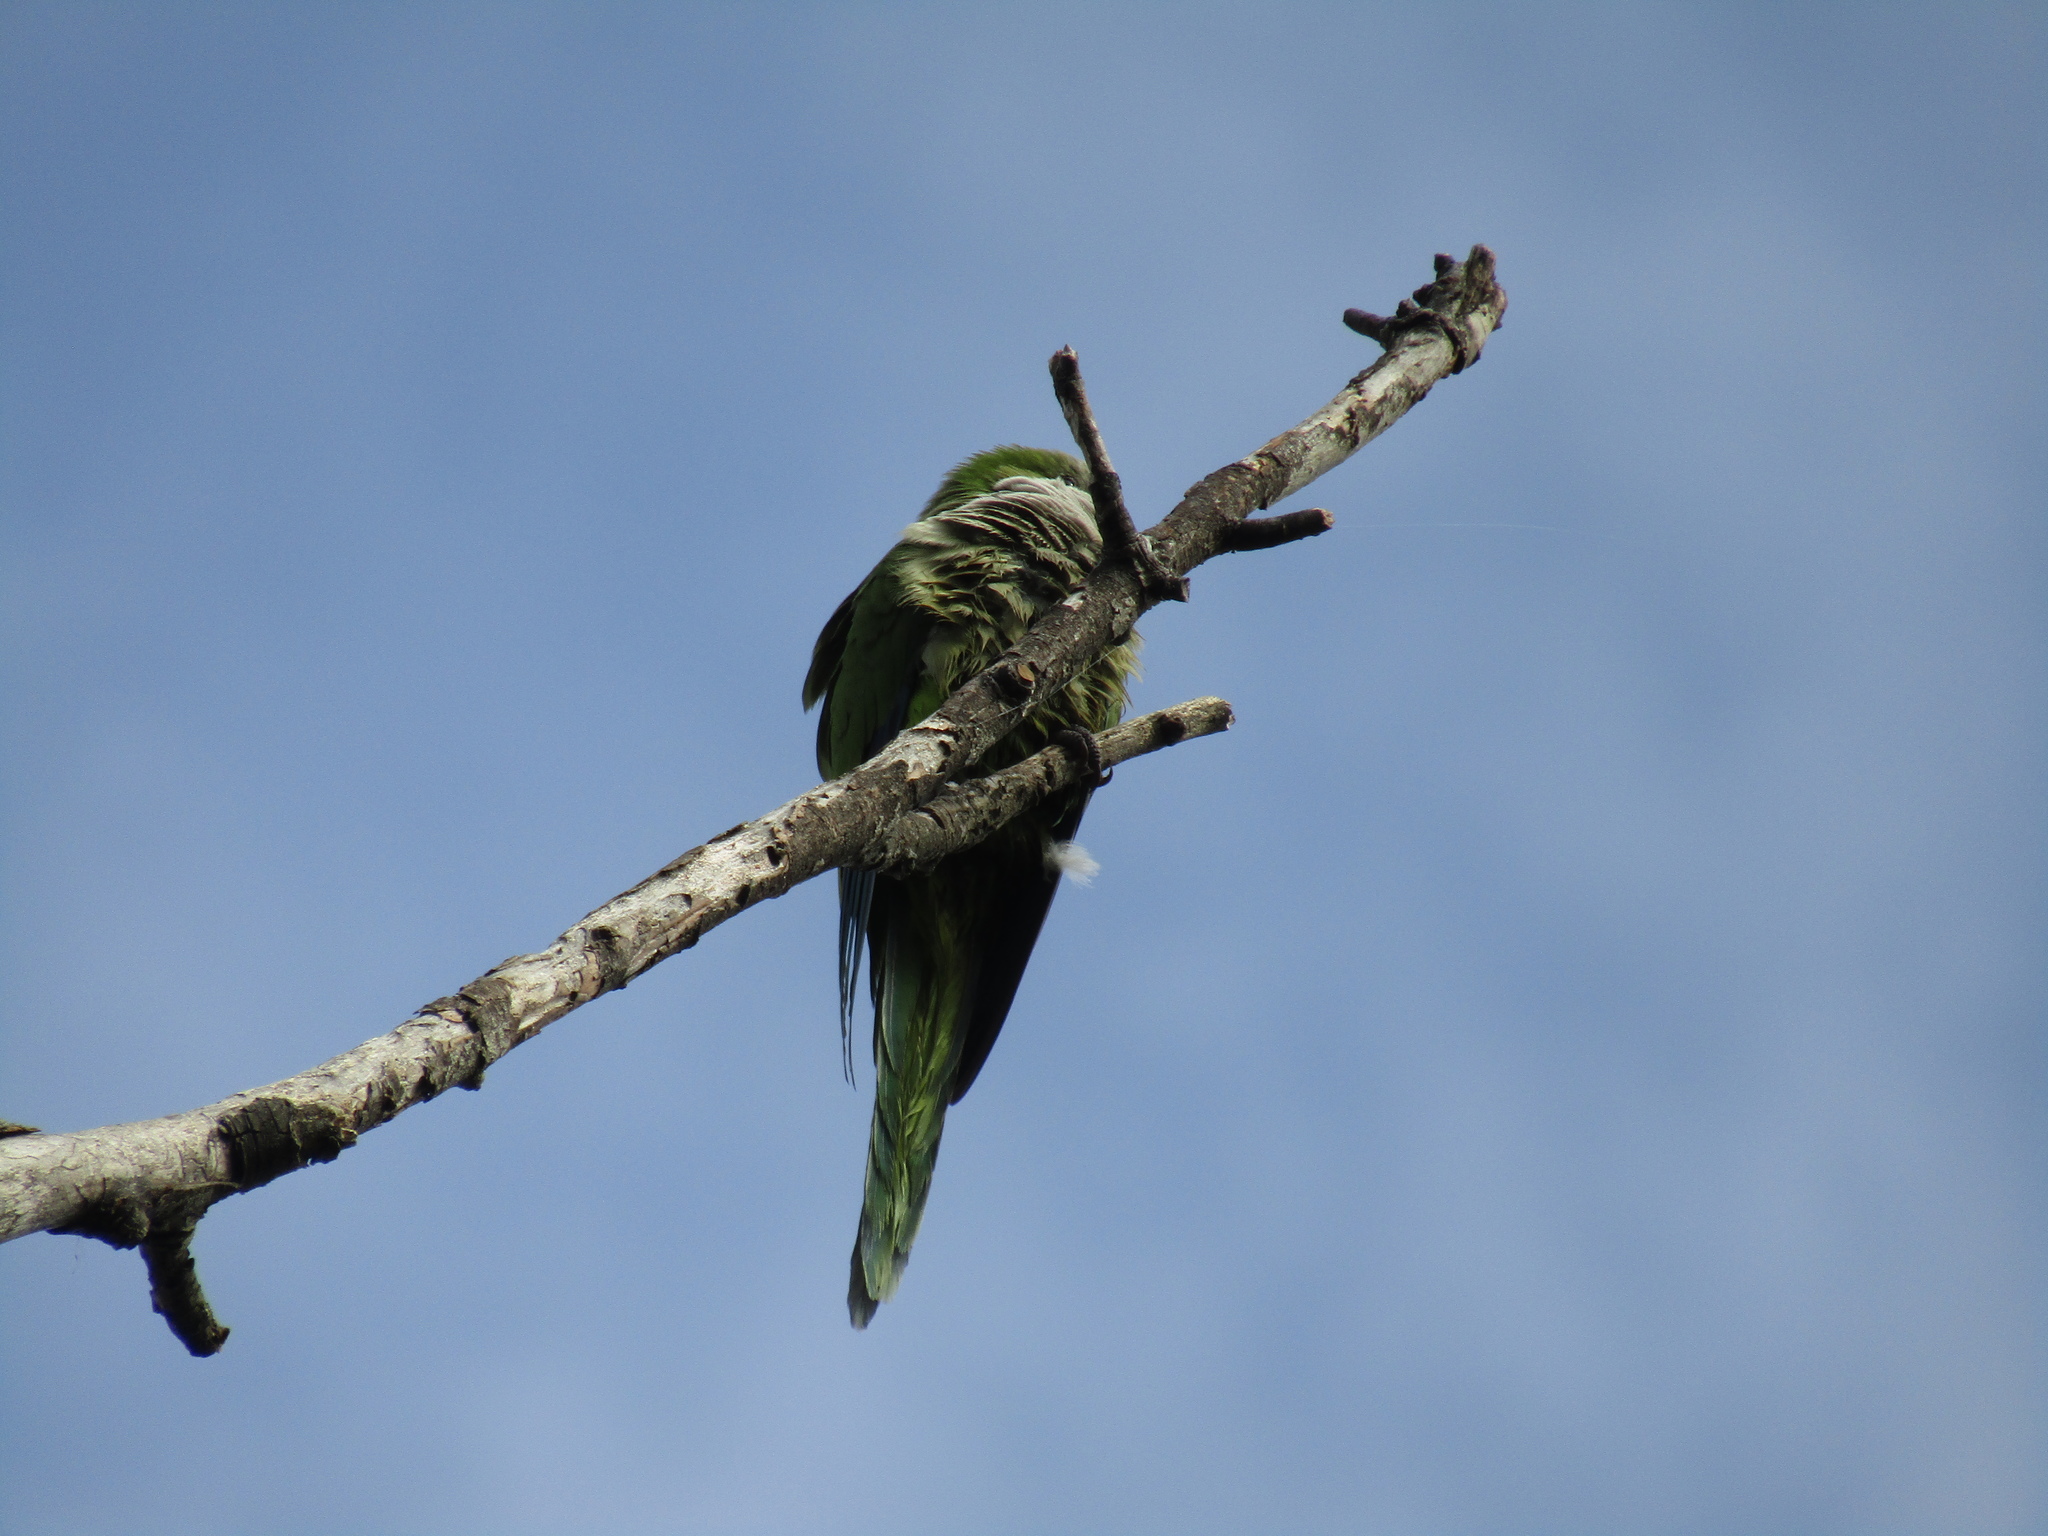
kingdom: Animalia
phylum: Chordata
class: Aves
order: Psittaciformes
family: Psittacidae
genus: Myiopsitta
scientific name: Myiopsitta monachus
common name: Monk parakeet
